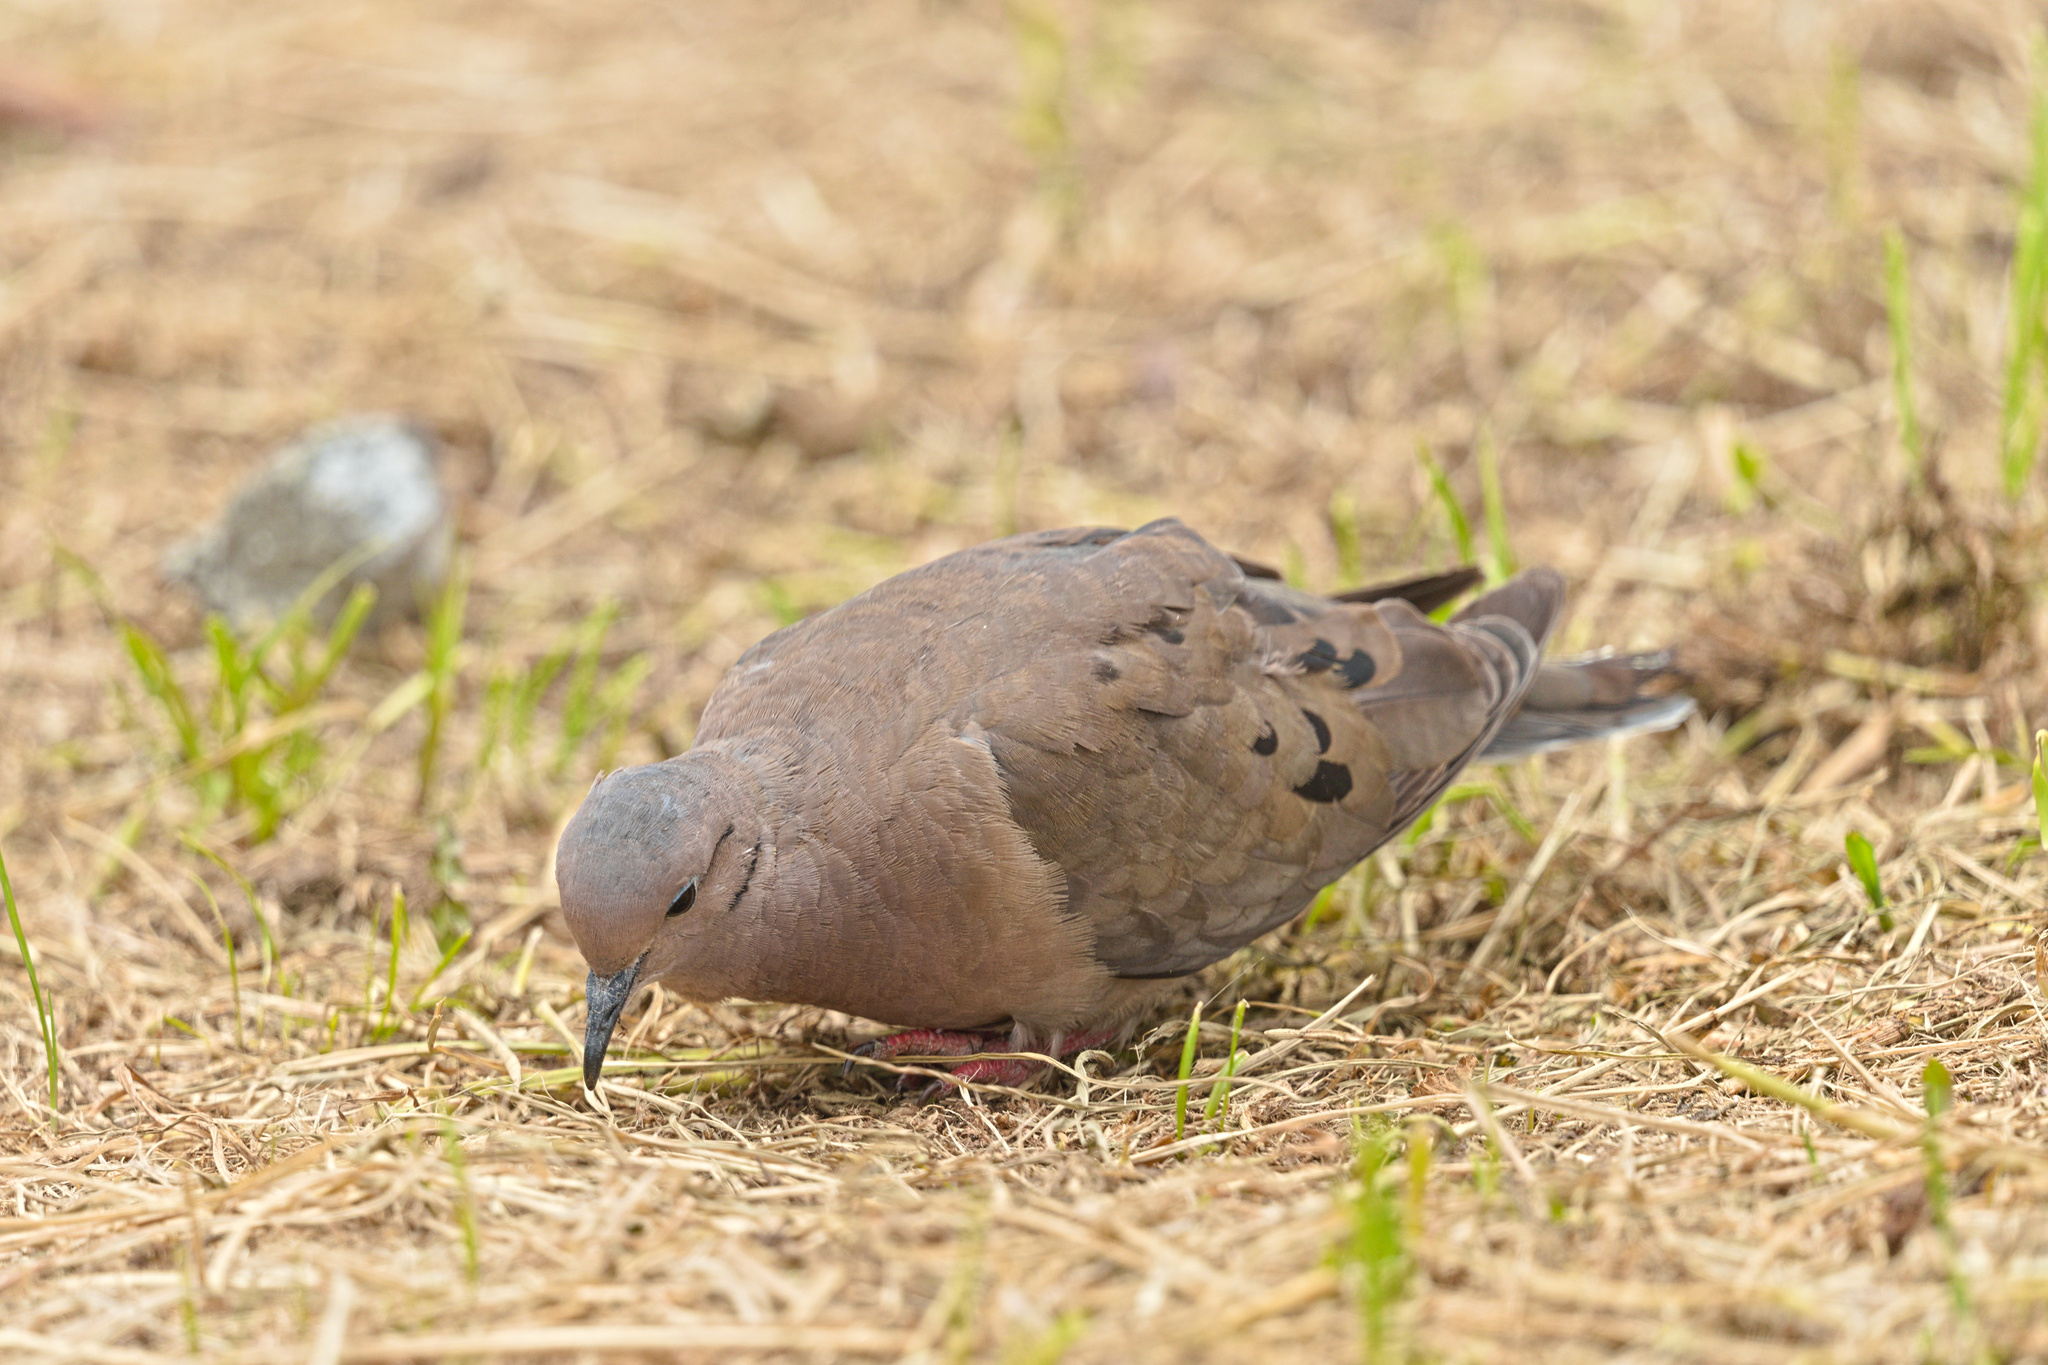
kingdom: Animalia
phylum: Chordata
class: Aves
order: Columbiformes
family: Columbidae
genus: Zenaida
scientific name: Zenaida auriculata
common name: Eared dove
